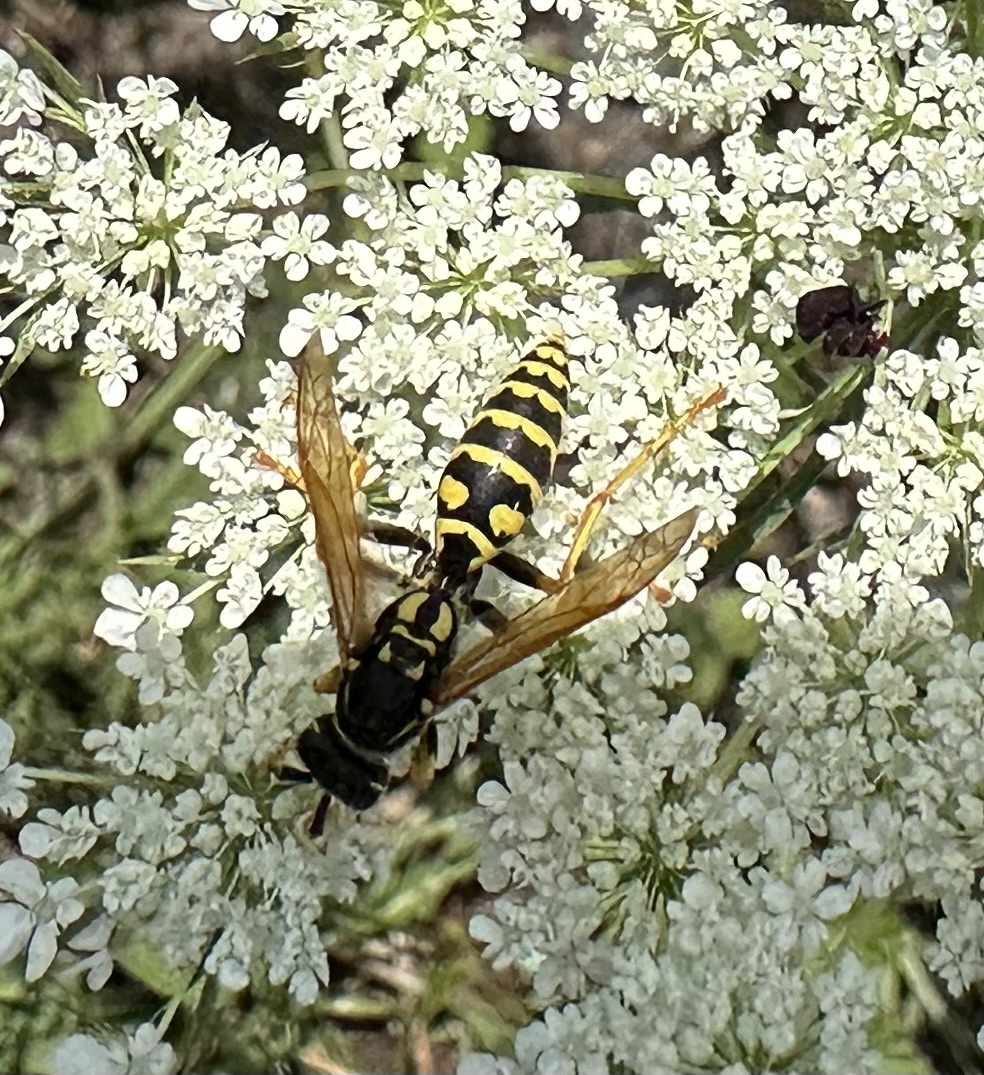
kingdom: Animalia
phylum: Arthropoda
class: Insecta
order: Hymenoptera
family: Eumenidae
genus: Polistes
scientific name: Polistes dominula
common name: Paper wasp
